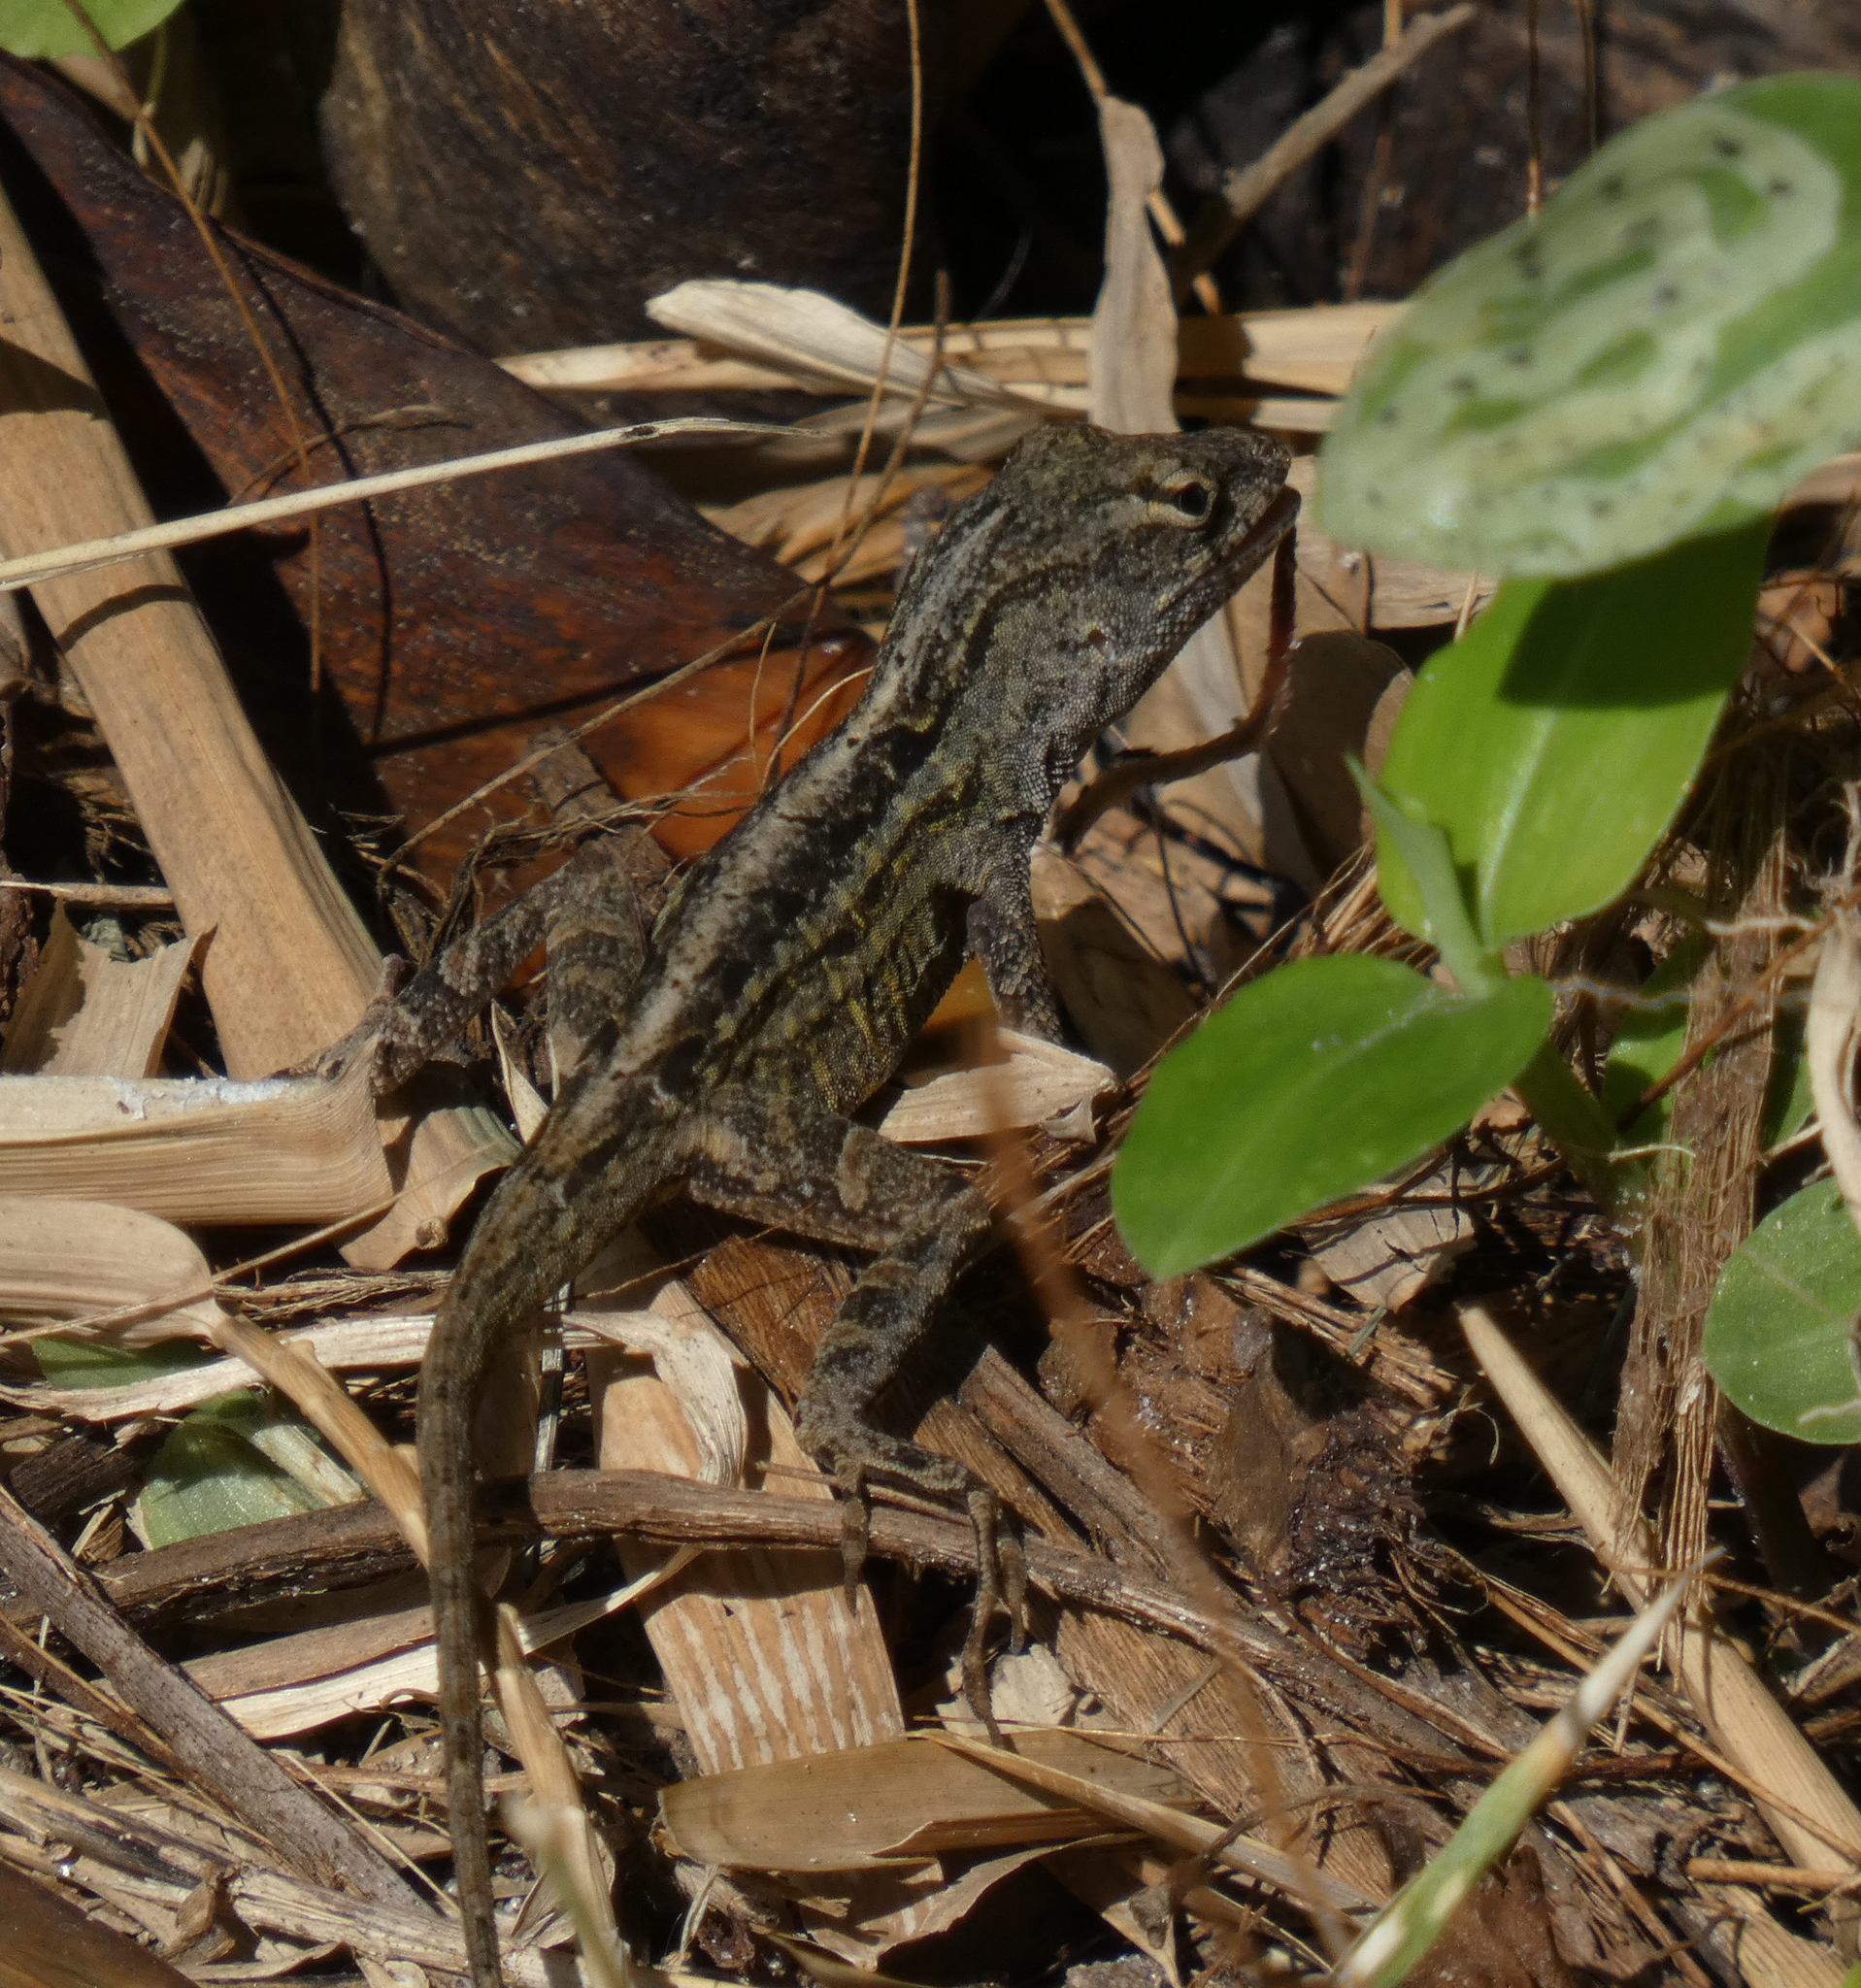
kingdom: Animalia
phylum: Chordata
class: Squamata
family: Dactyloidae
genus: Anolis
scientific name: Anolis sagrei
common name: Brown anole
